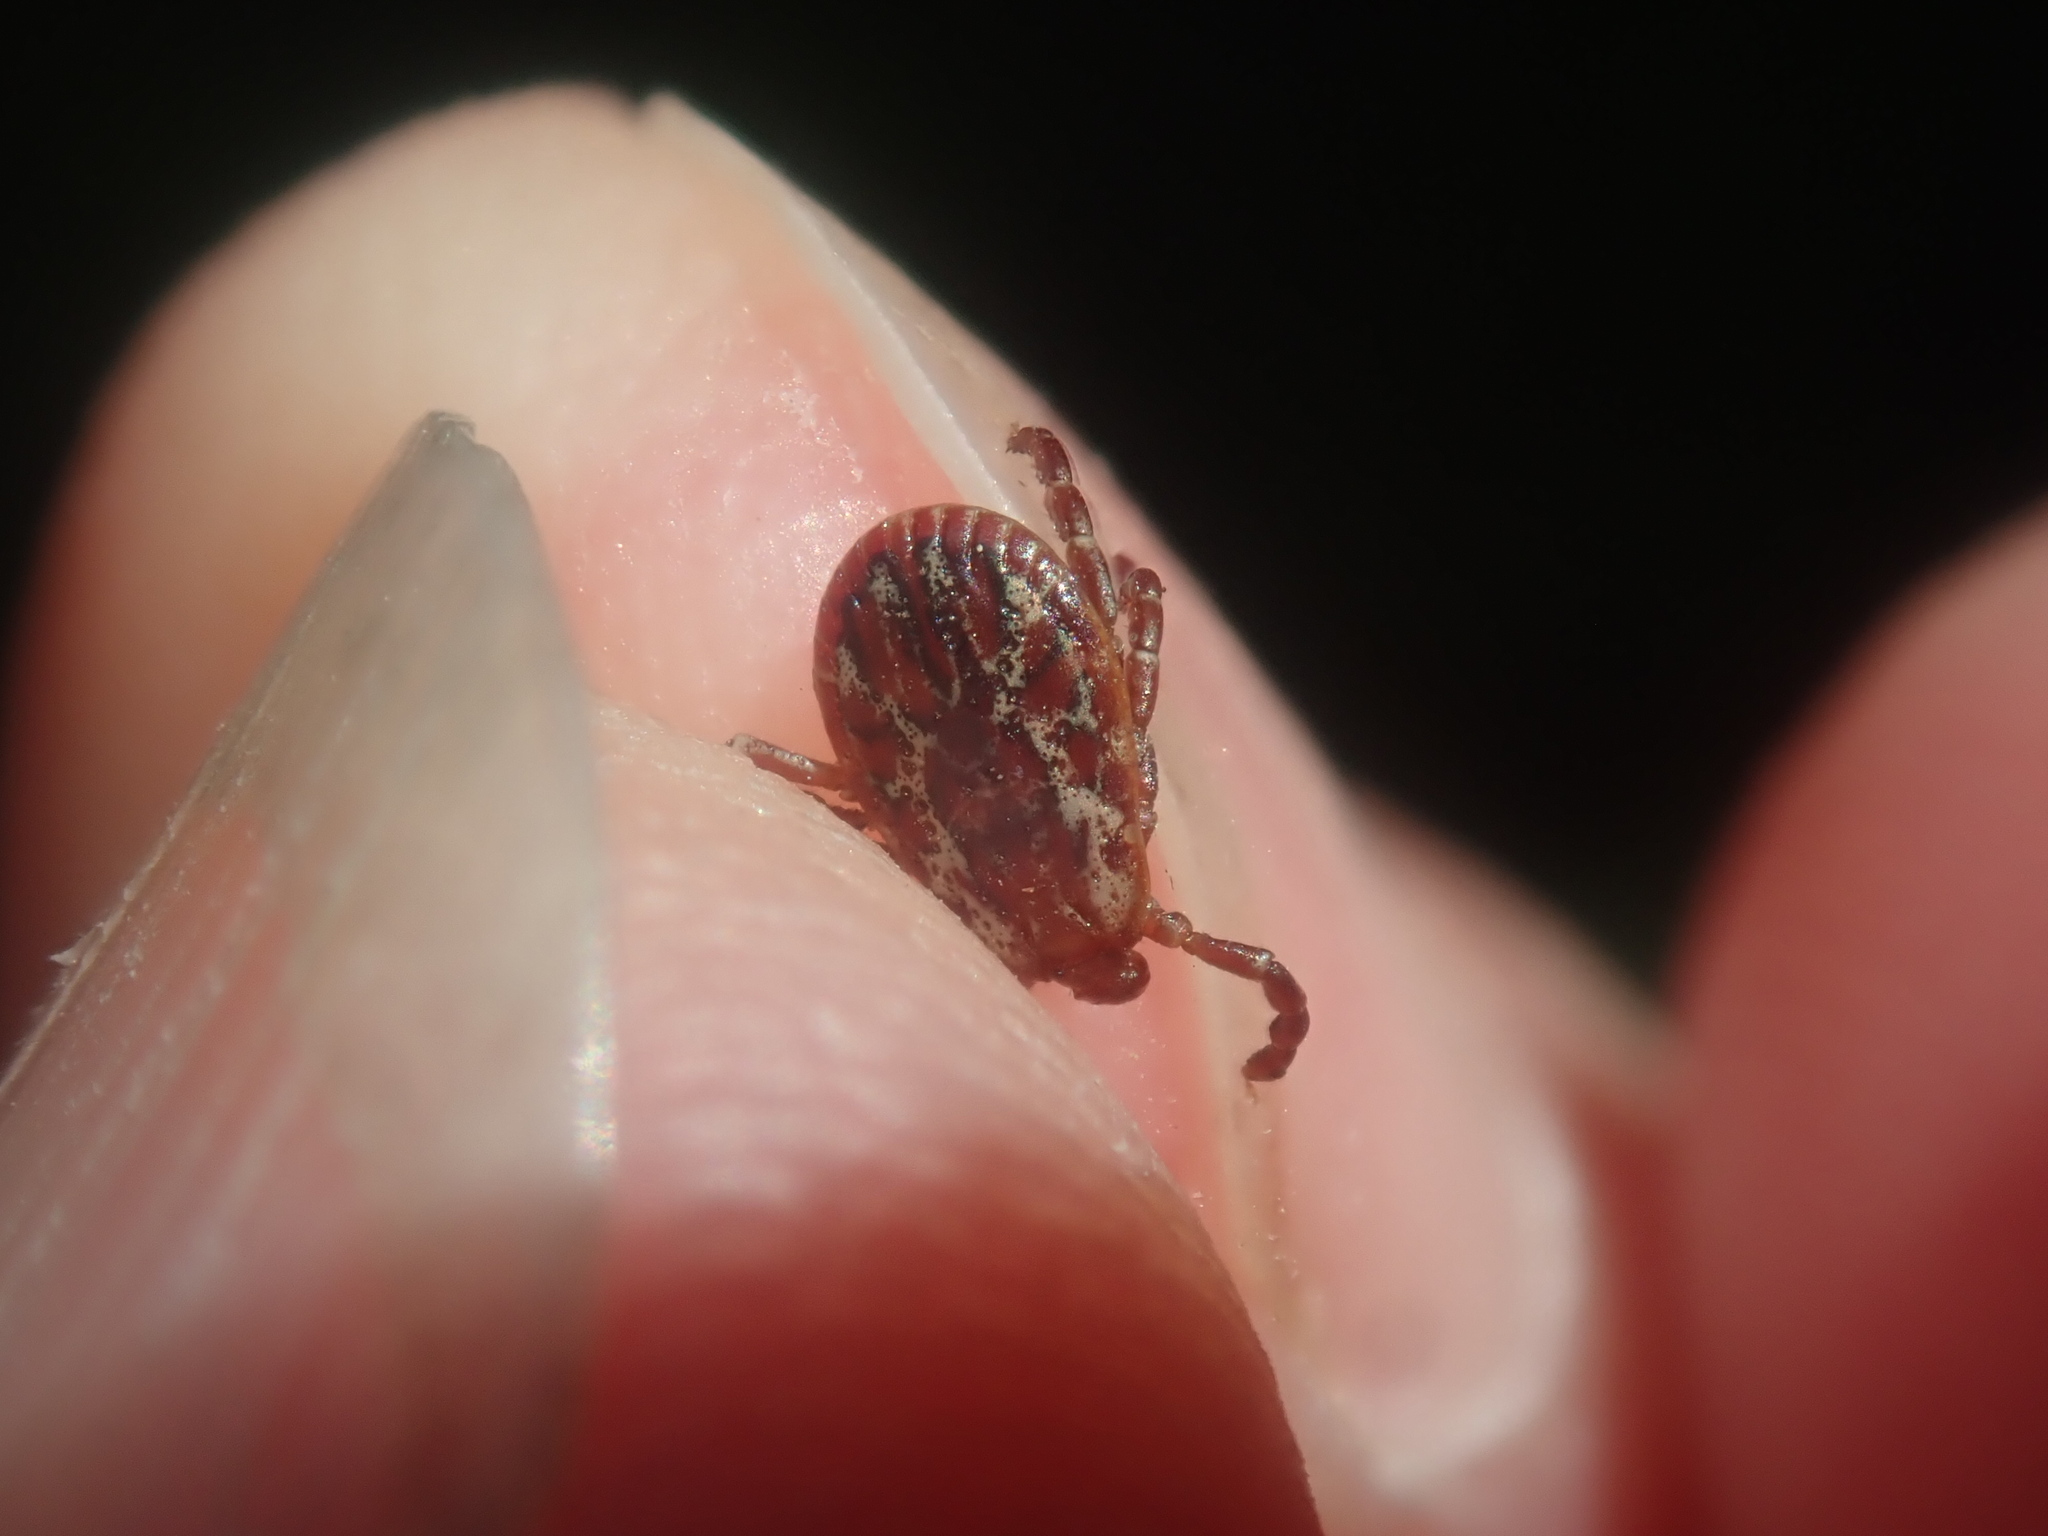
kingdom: Animalia
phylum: Arthropoda
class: Arachnida
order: Ixodida
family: Ixodidae
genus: Dermacentor
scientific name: Dermacentor variabilis
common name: American dog tick
